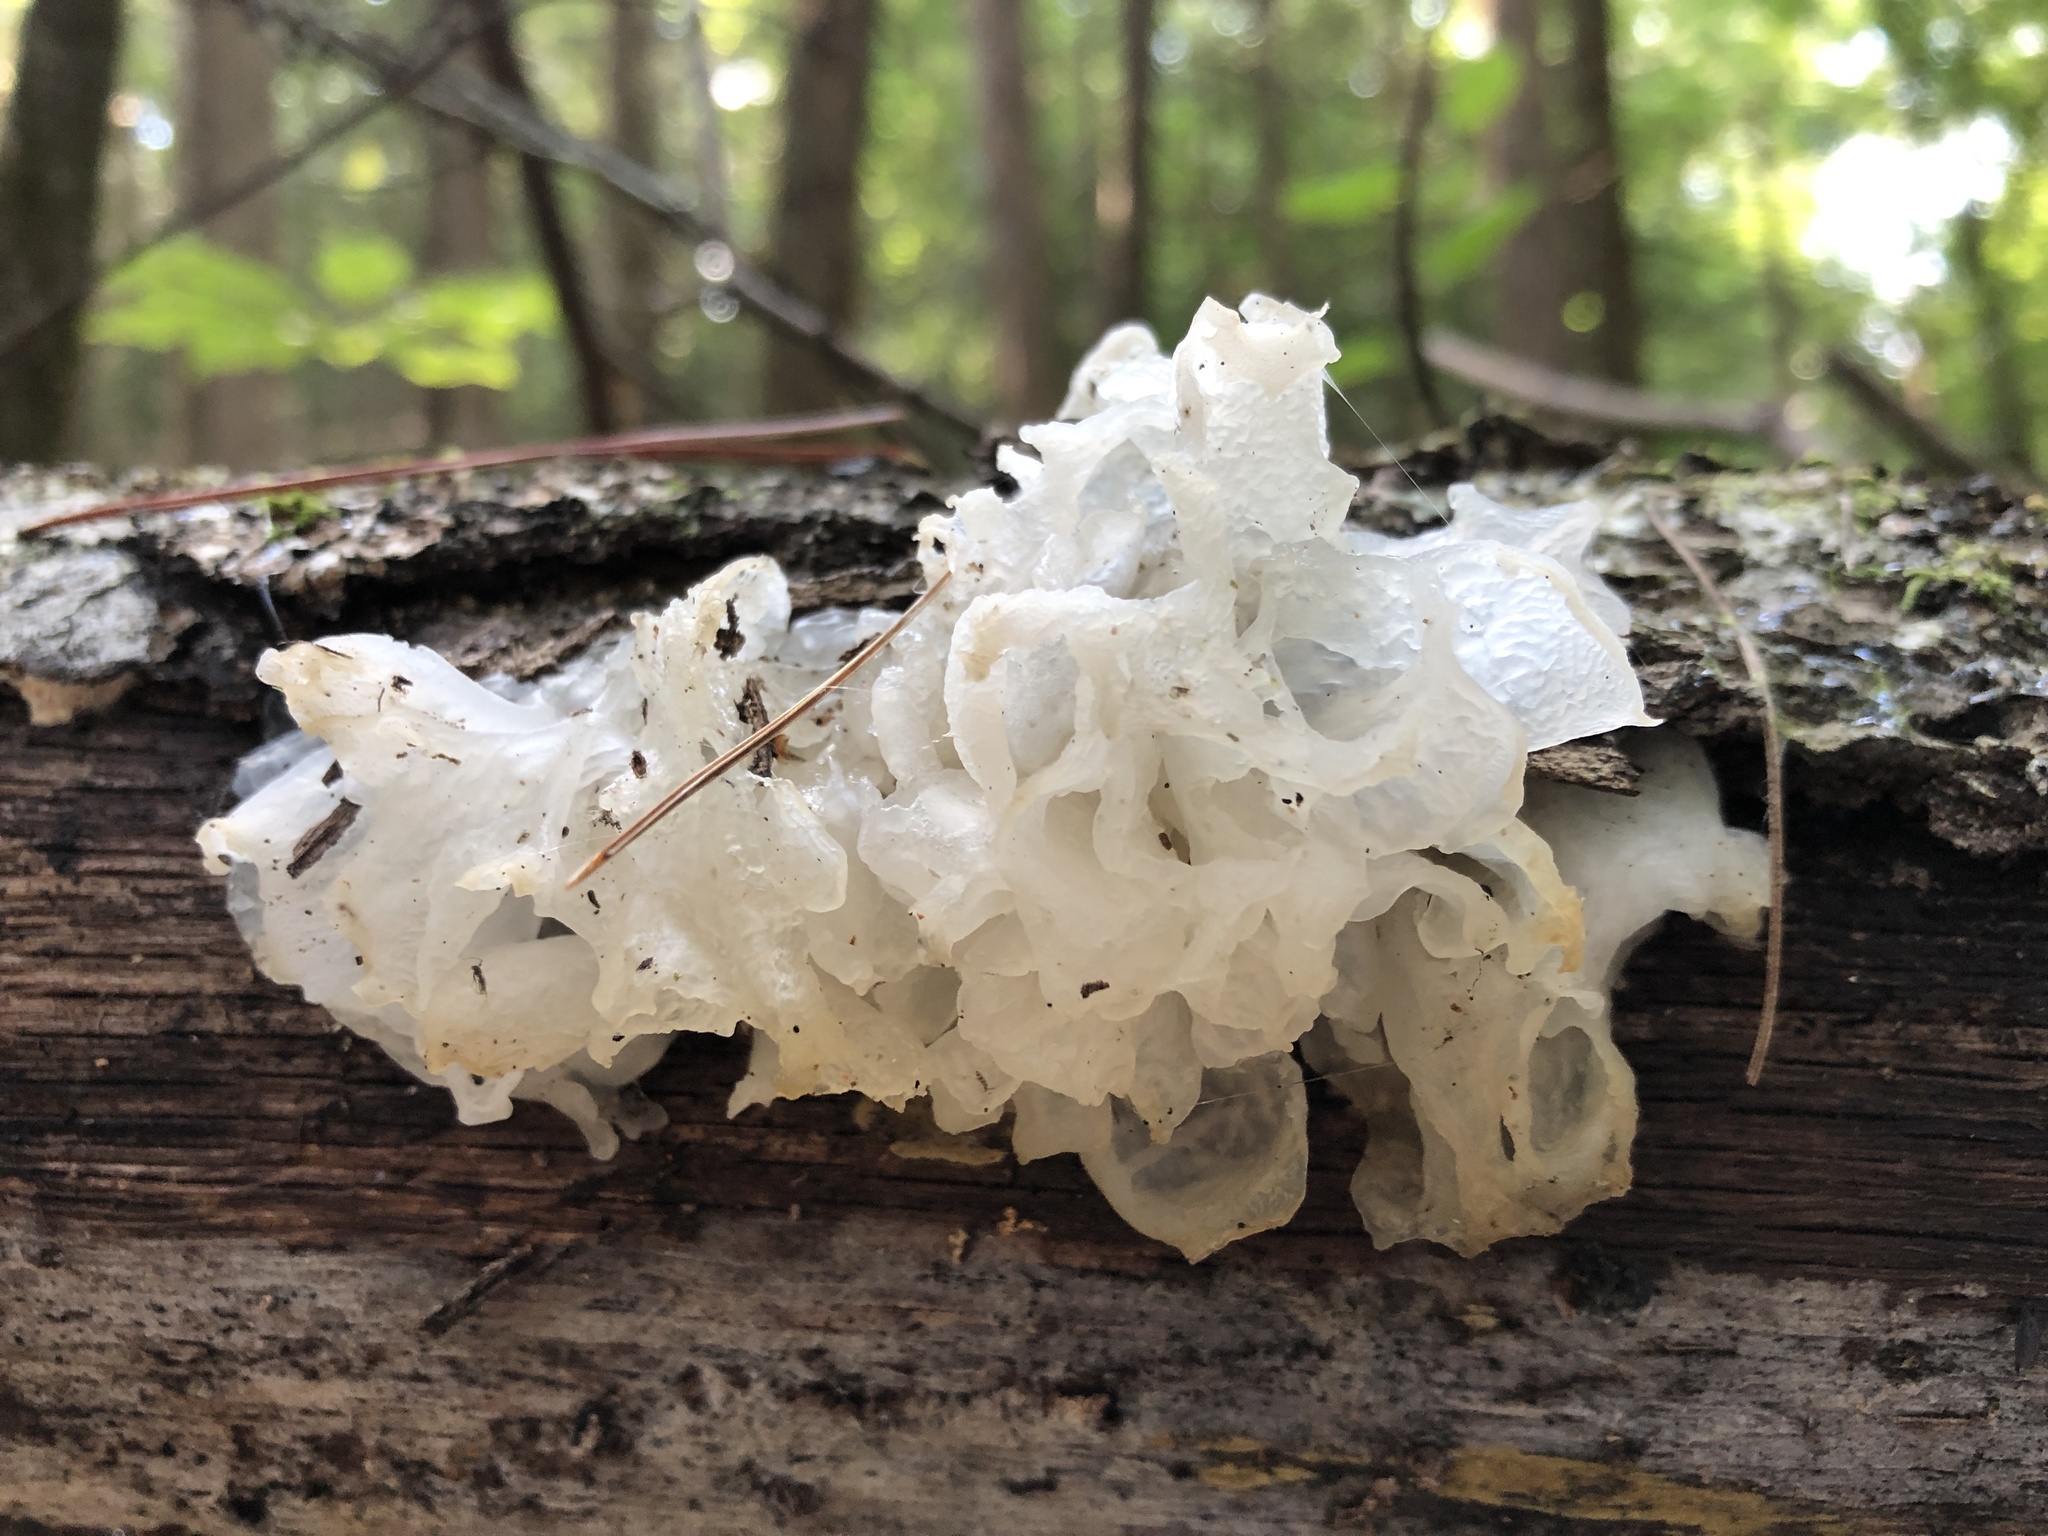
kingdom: Fungi
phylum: Basidiomycota
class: Tremellomycetes
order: Tremellales
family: Tremellaceae
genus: Tremella
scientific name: Tremella fuciformis
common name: Snow fungus
